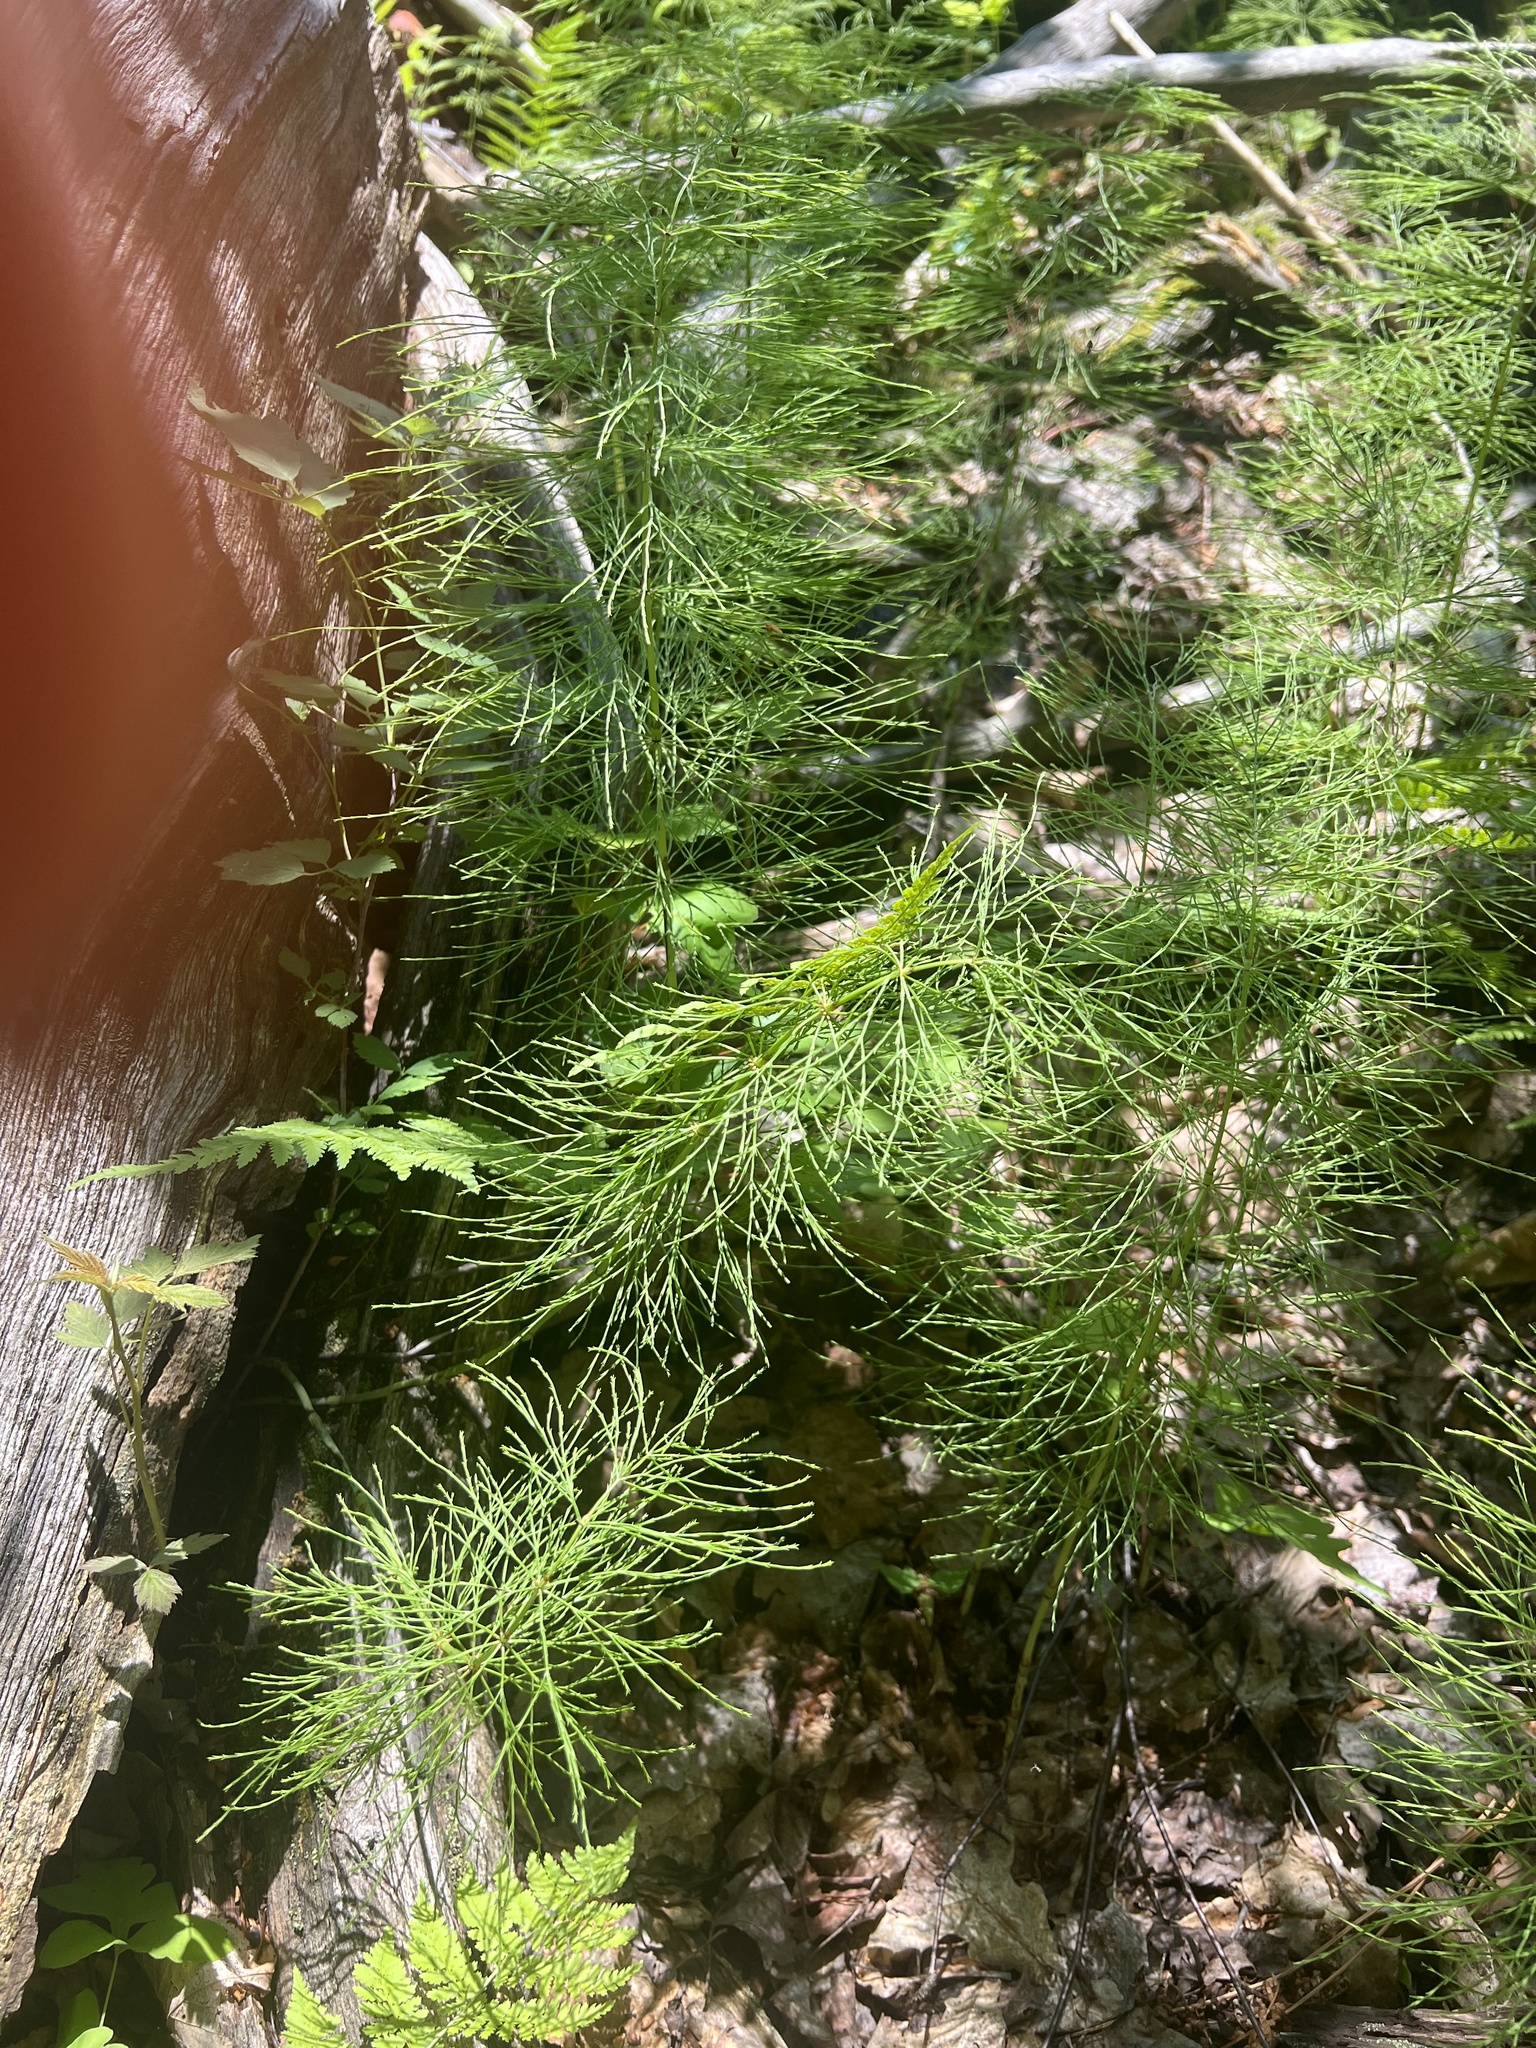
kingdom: Plantae
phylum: Tracheophyta
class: Polypodiopsida
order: Equisetales
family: Equisetaceae
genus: Equisetum
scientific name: Equisetum sylvaticum
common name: Wood horsetail
